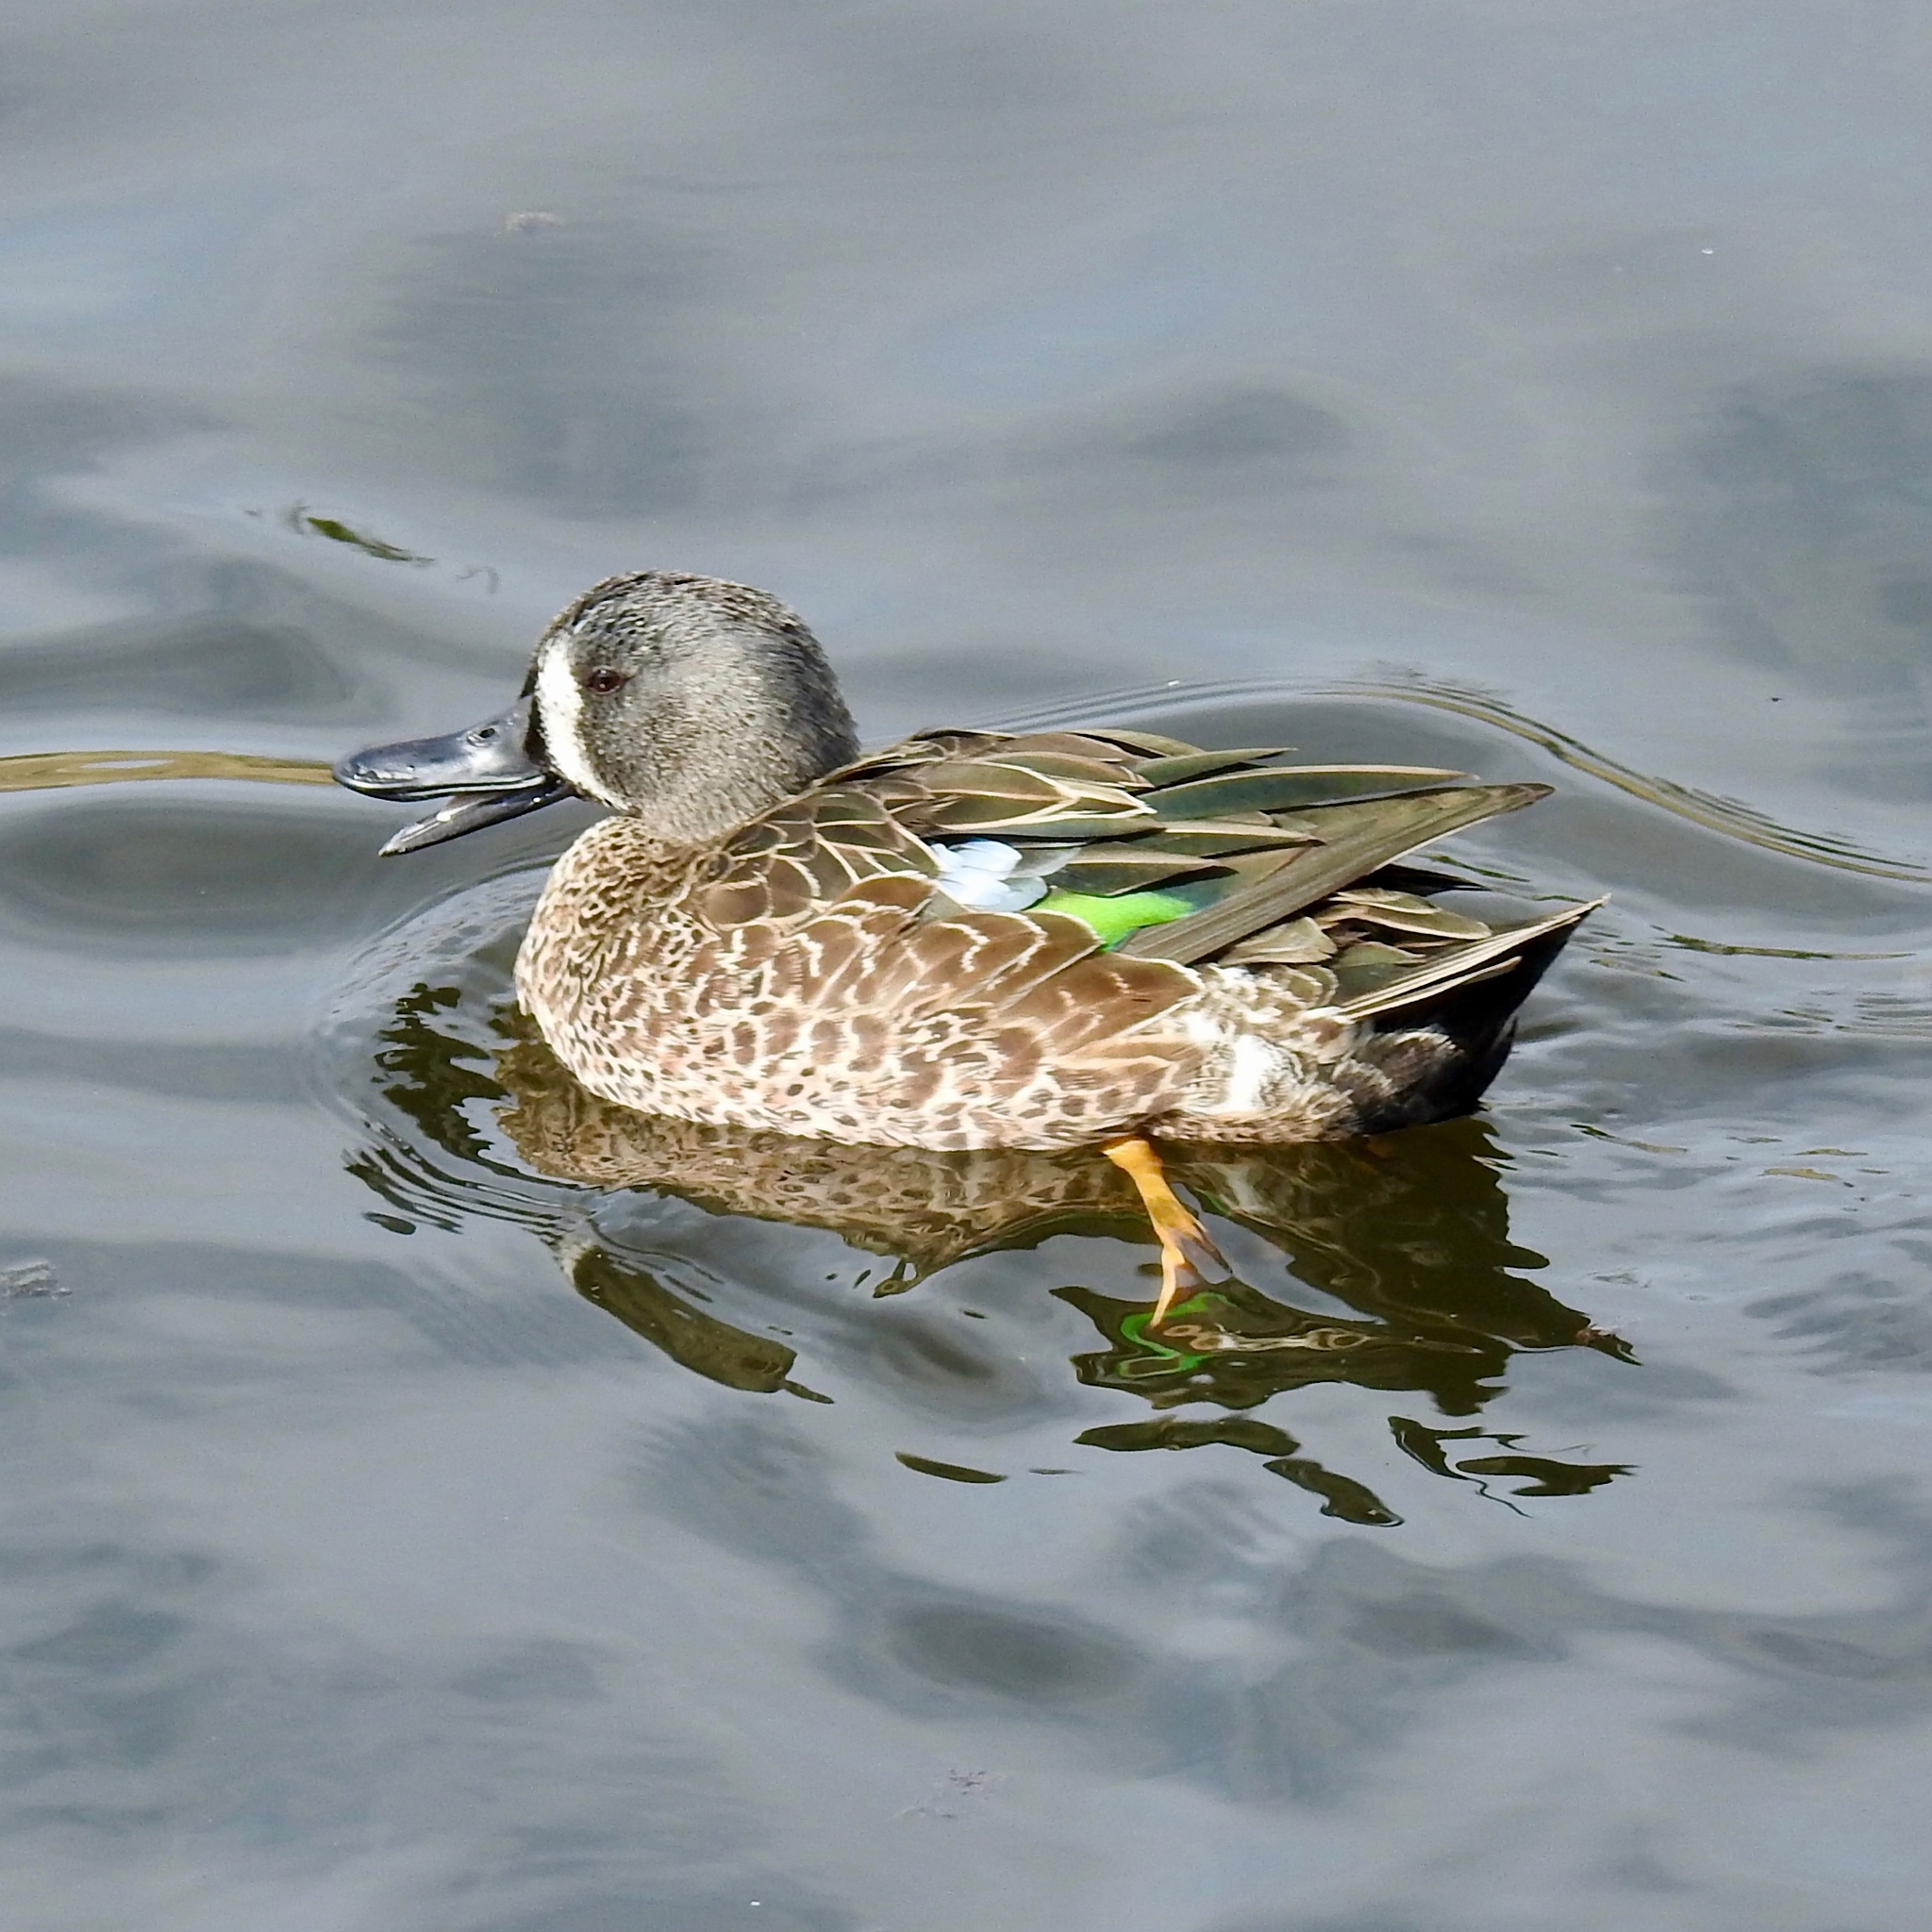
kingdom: Animalia
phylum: Chordata
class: Aves
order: Anseriformes
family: Anatidae
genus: Spatula
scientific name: Spatula discors
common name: Blue-winged teal
